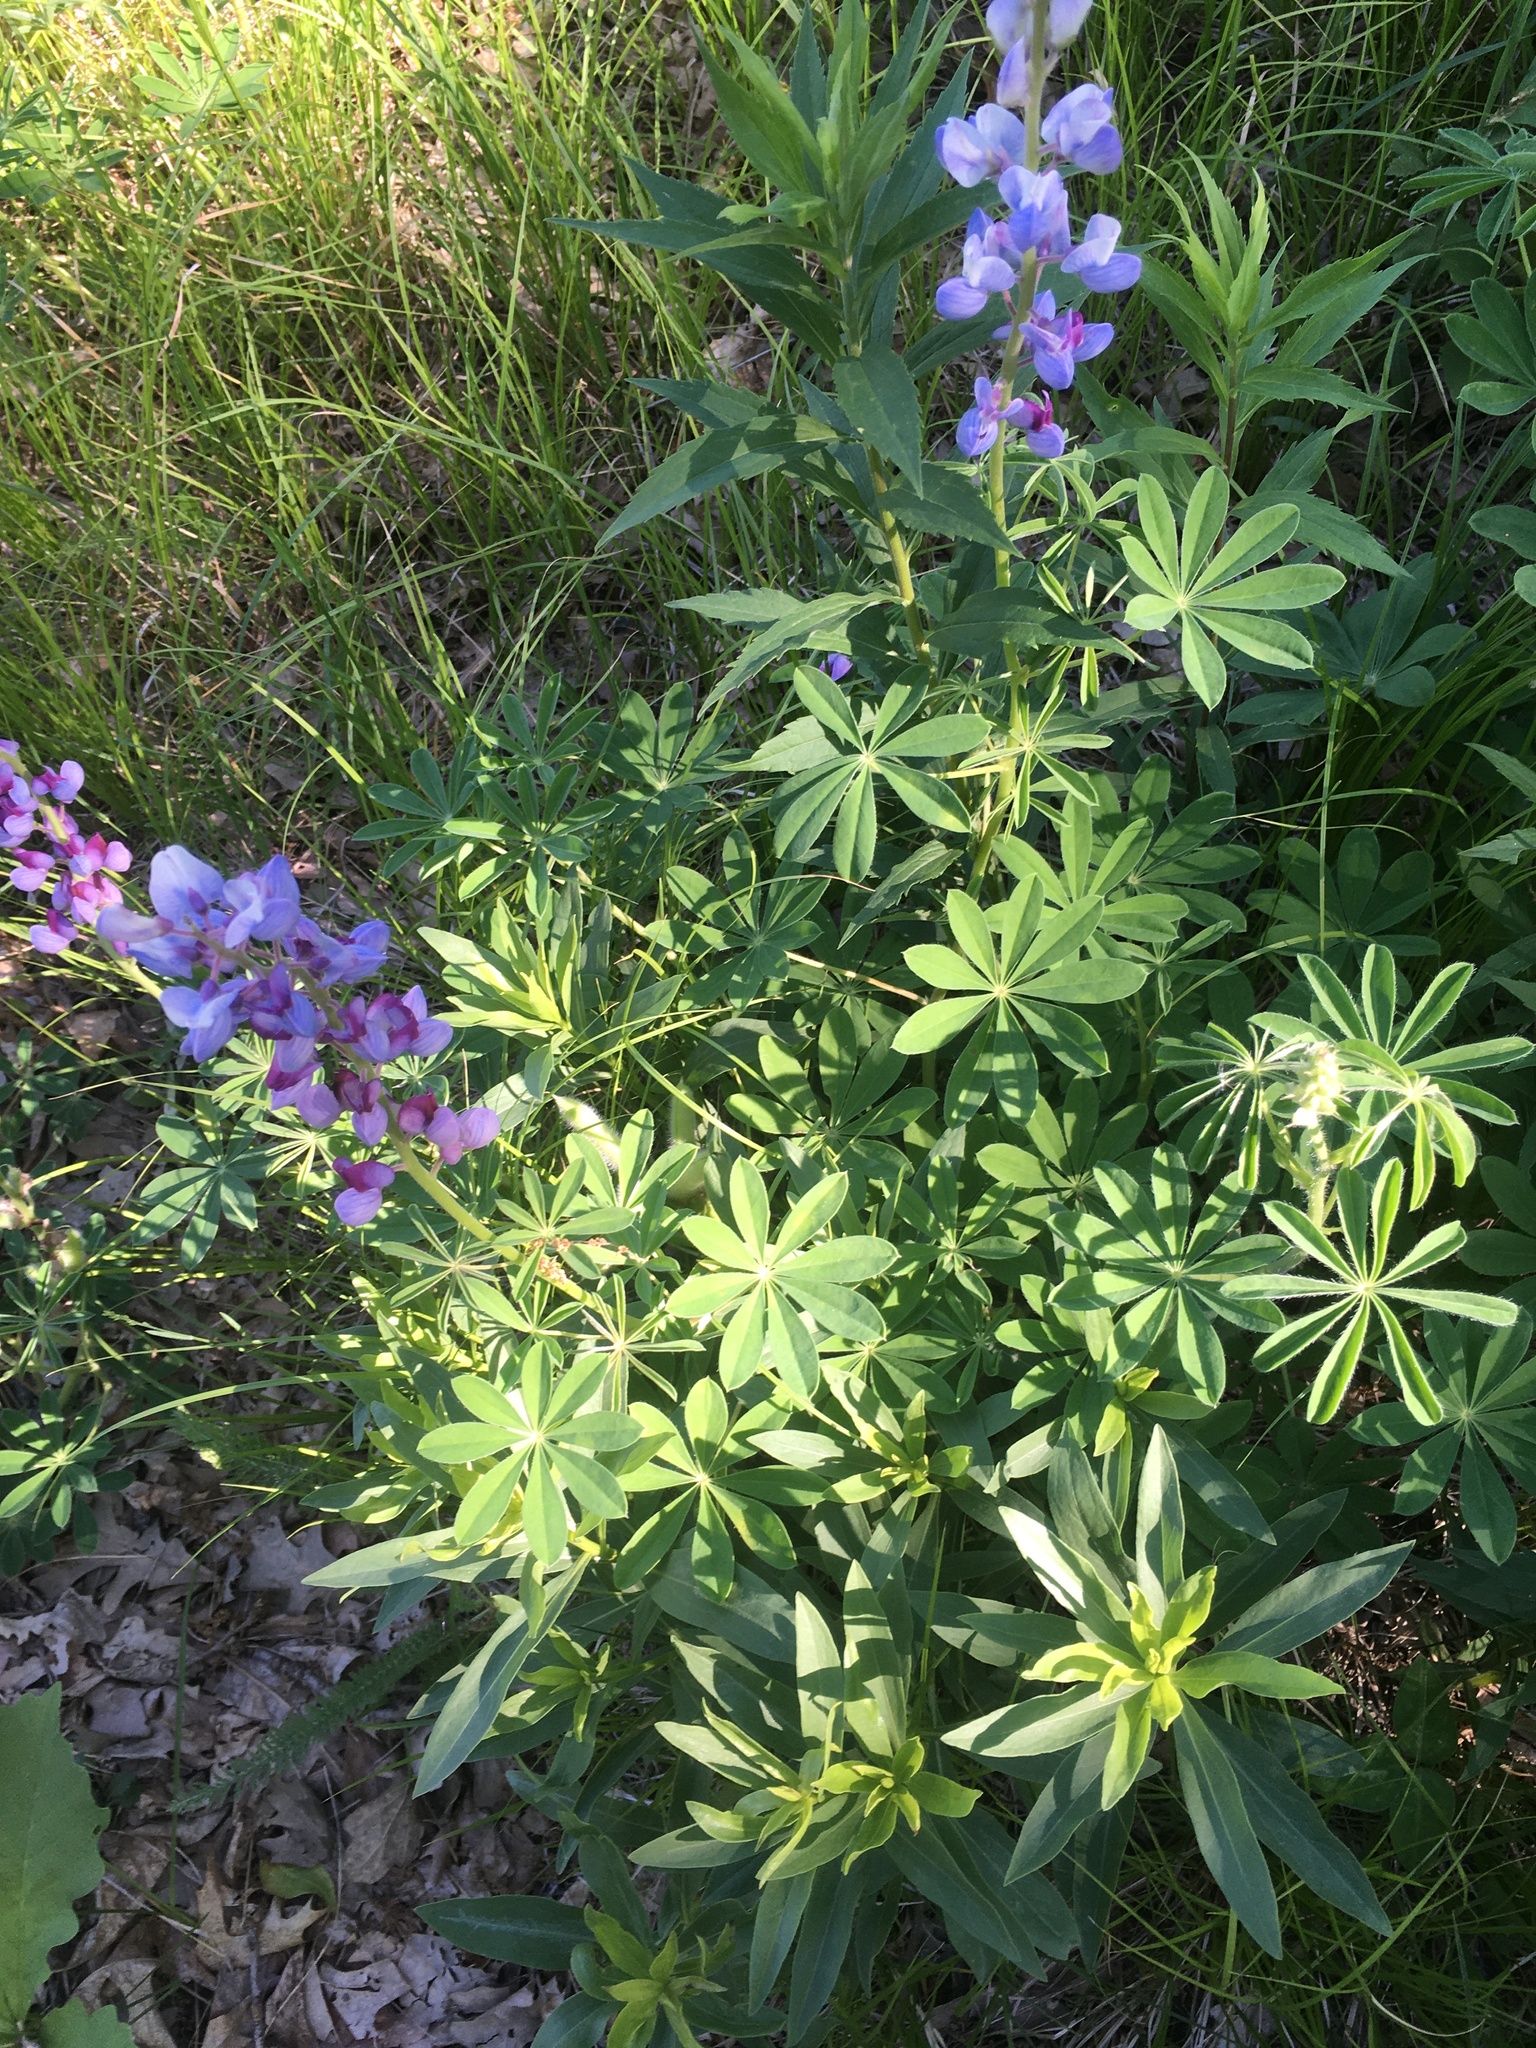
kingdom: Plantae
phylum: Tracheophyta
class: Magnoliopsida
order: Fabales
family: Fabaceae
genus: Lupinus
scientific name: Lupinus perennis
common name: Sundial lupine
